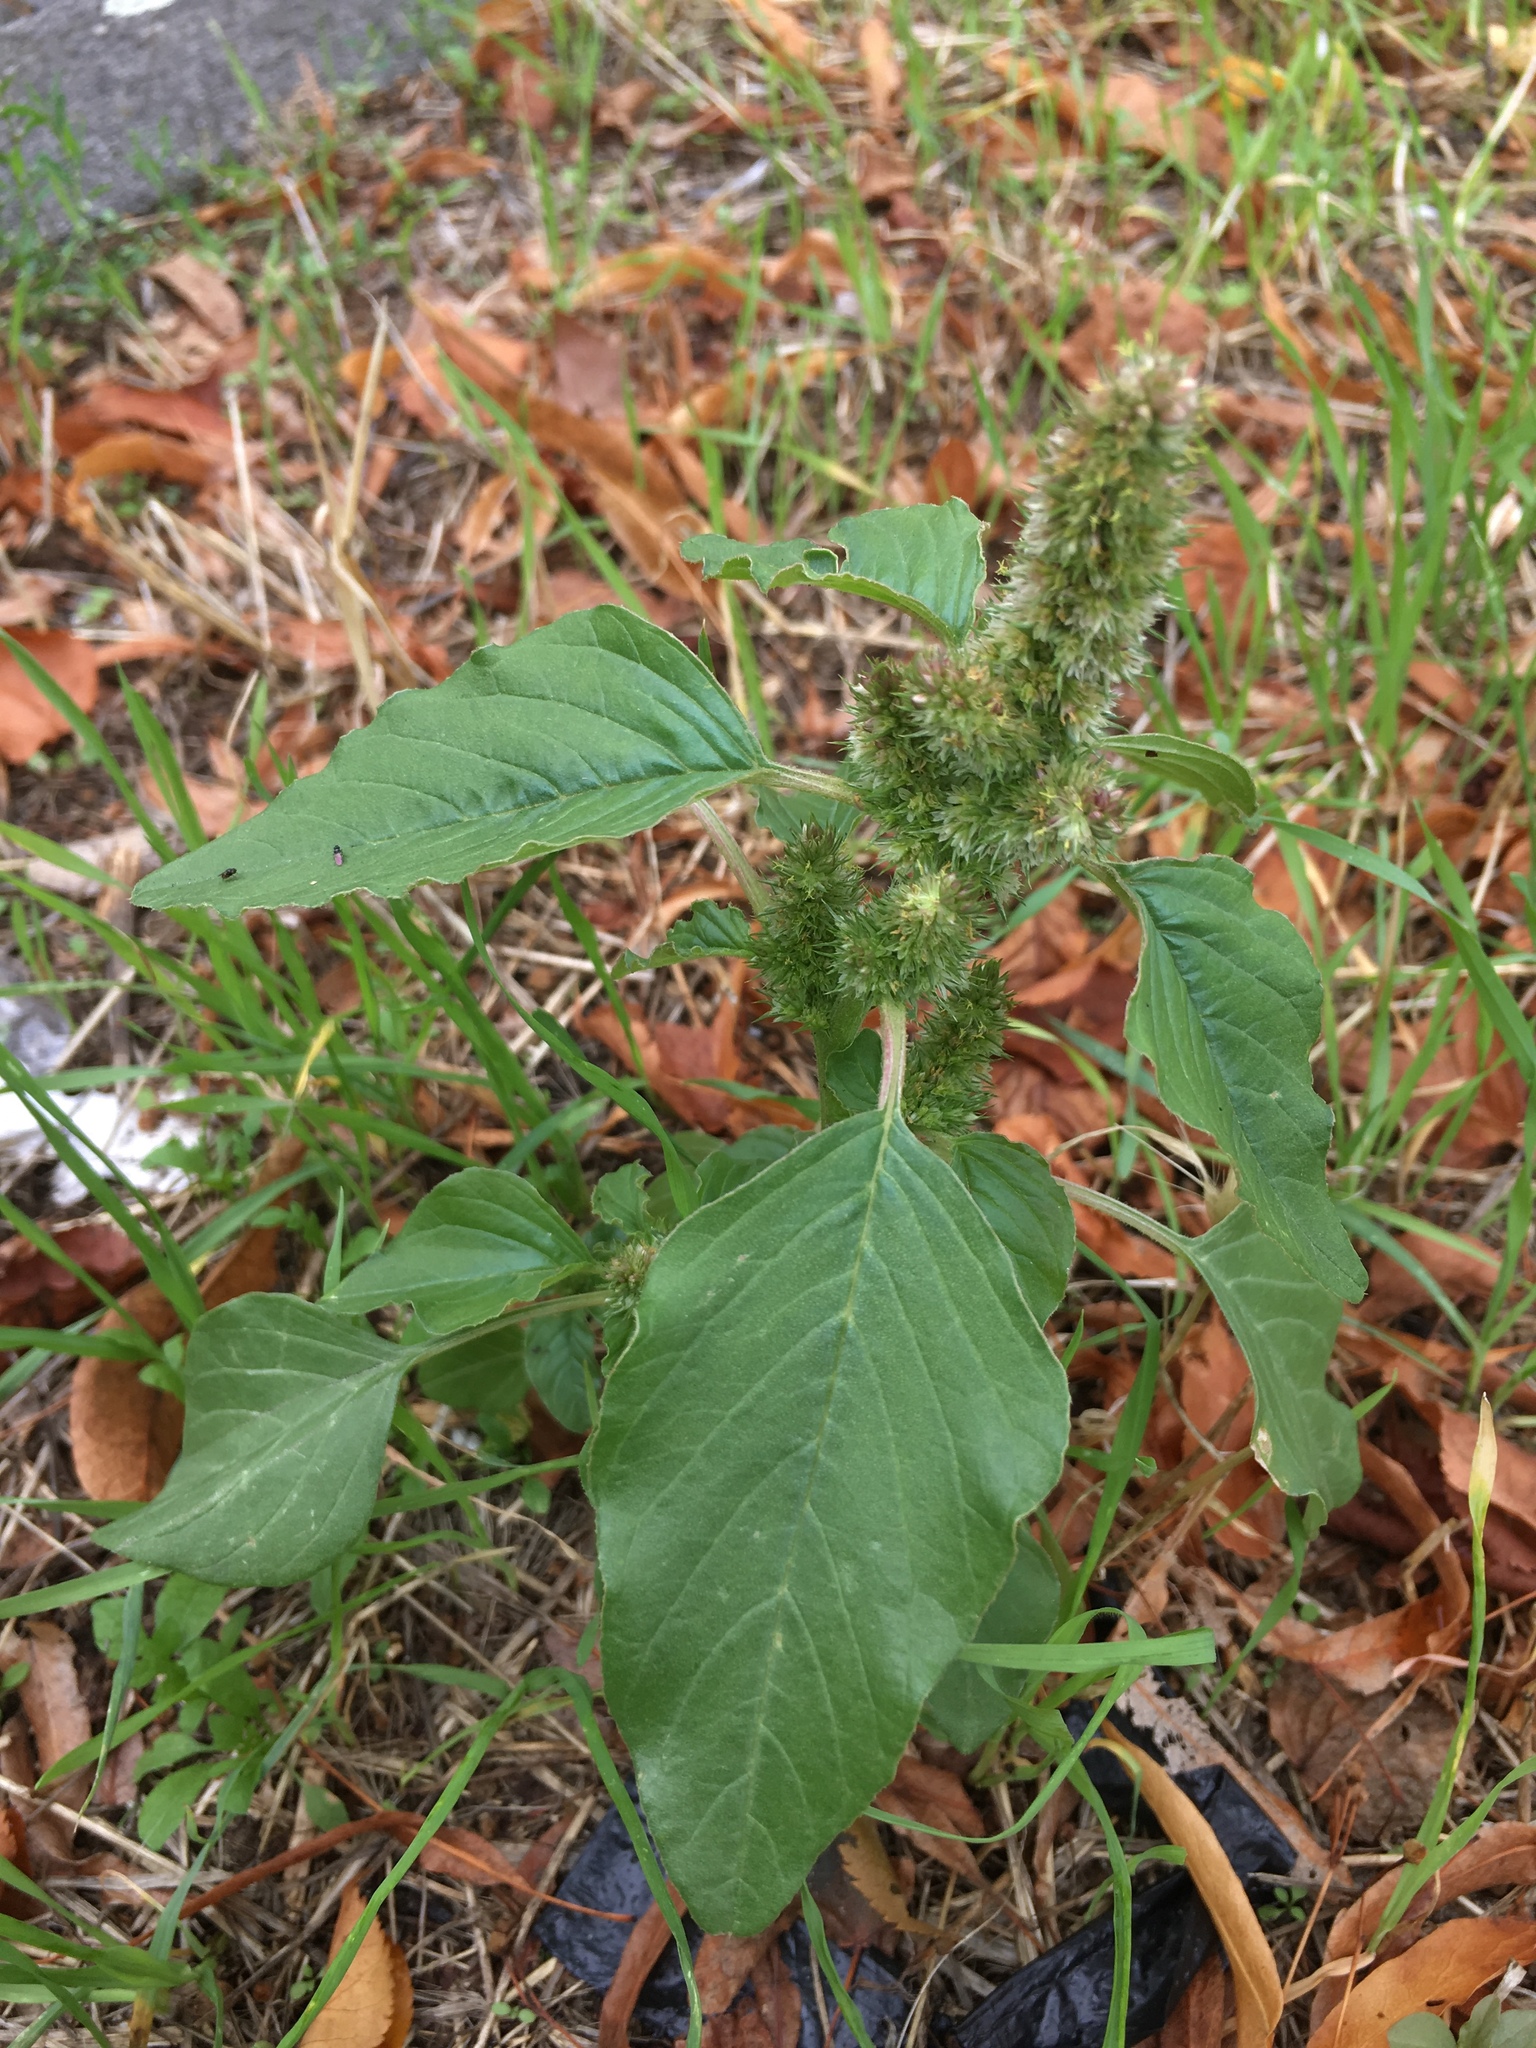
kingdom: Plantae
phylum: Tracheophyta
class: Magnoliopsida
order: Caryophyllales
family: Amaranthaceae
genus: Amaranthus
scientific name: Amaranthus retroflexus
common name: Redroot amaranth
